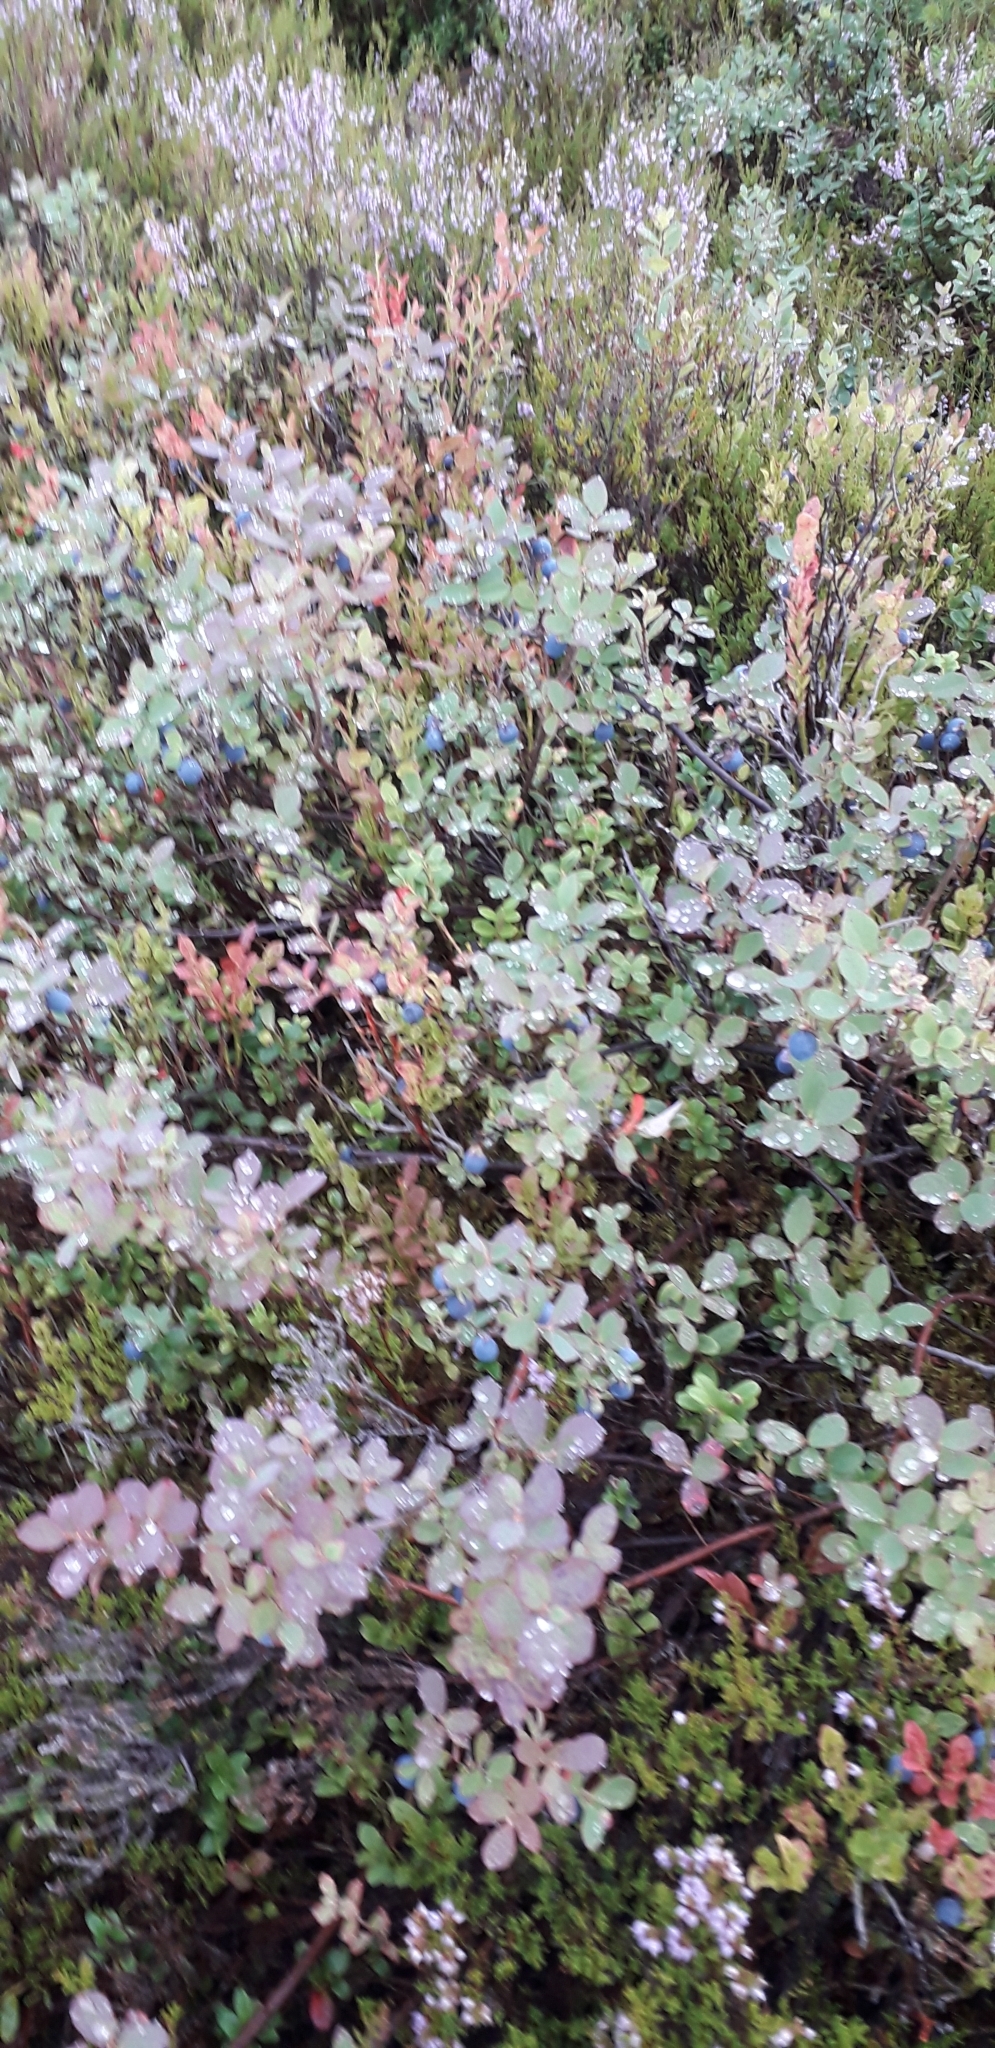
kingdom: Plantae
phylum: Tracheophyta
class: Magnoliopsida
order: Ericales
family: Ericaceae
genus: Vaccinium
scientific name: Vaccinium uliginosum
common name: Bog bilberry
